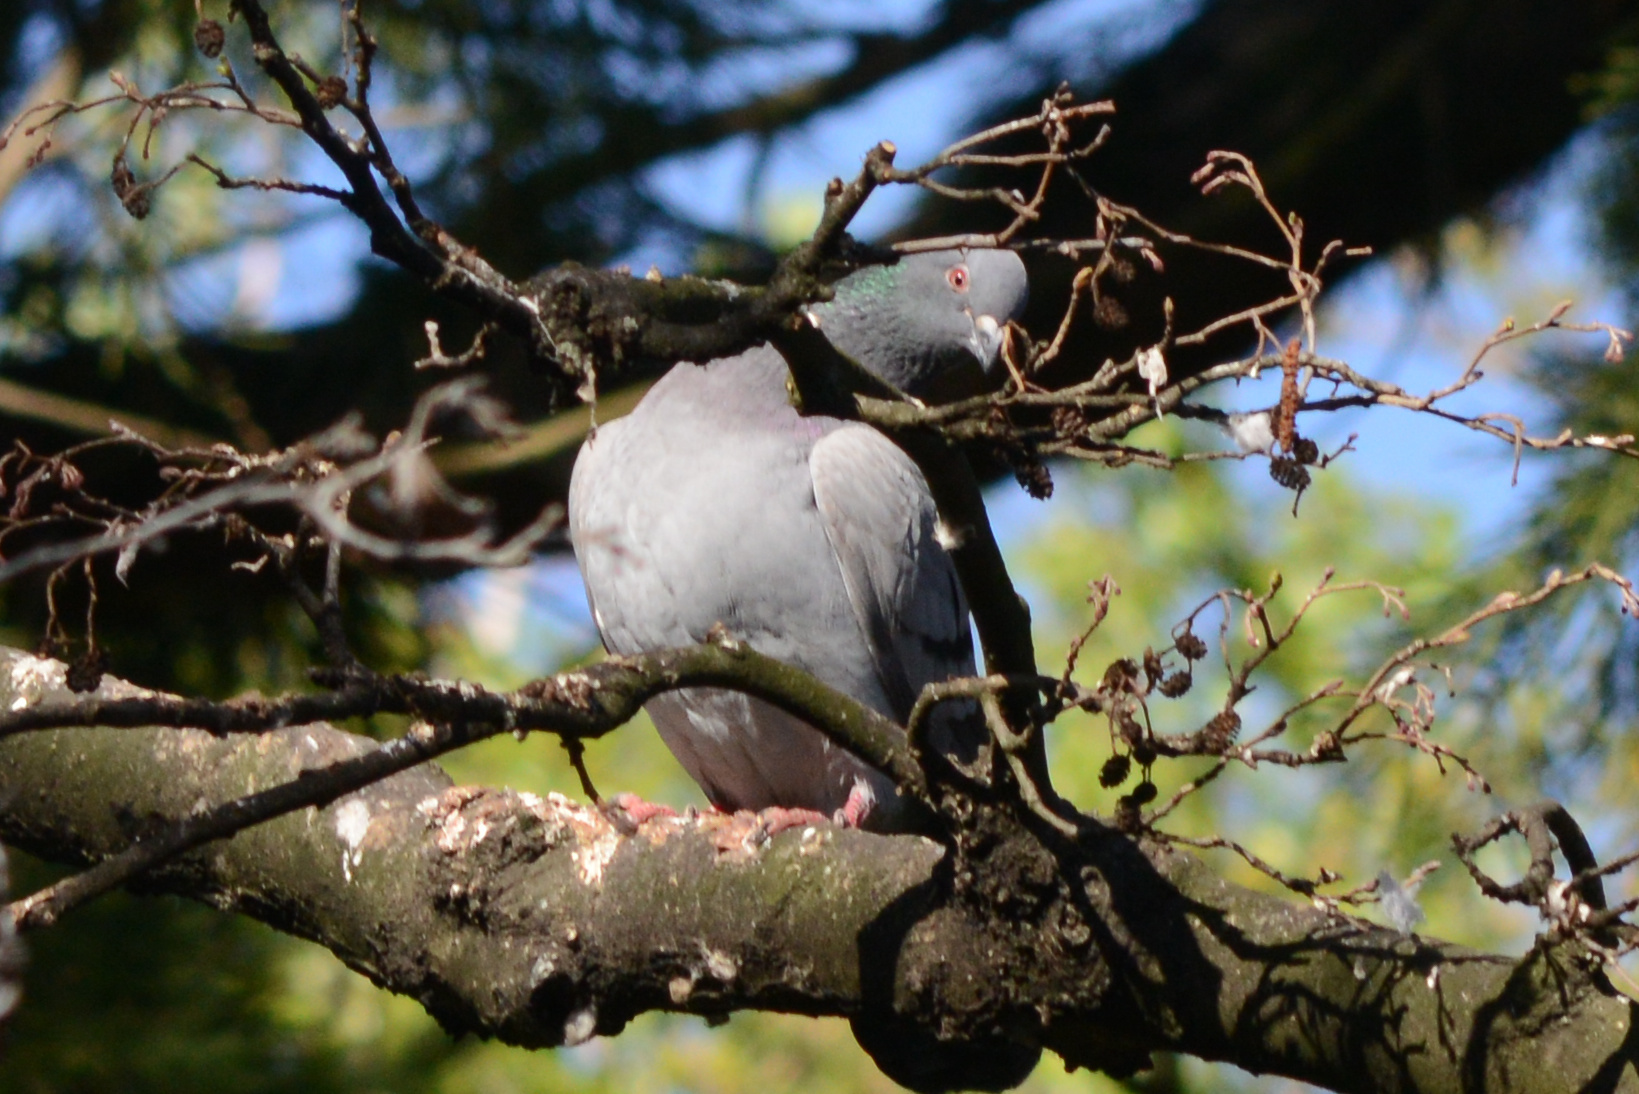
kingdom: Animalia
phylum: Chordata
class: Aves
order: Columbiformes
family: Columbidae
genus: Columba
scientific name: Columba livia
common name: Rock pigeon
